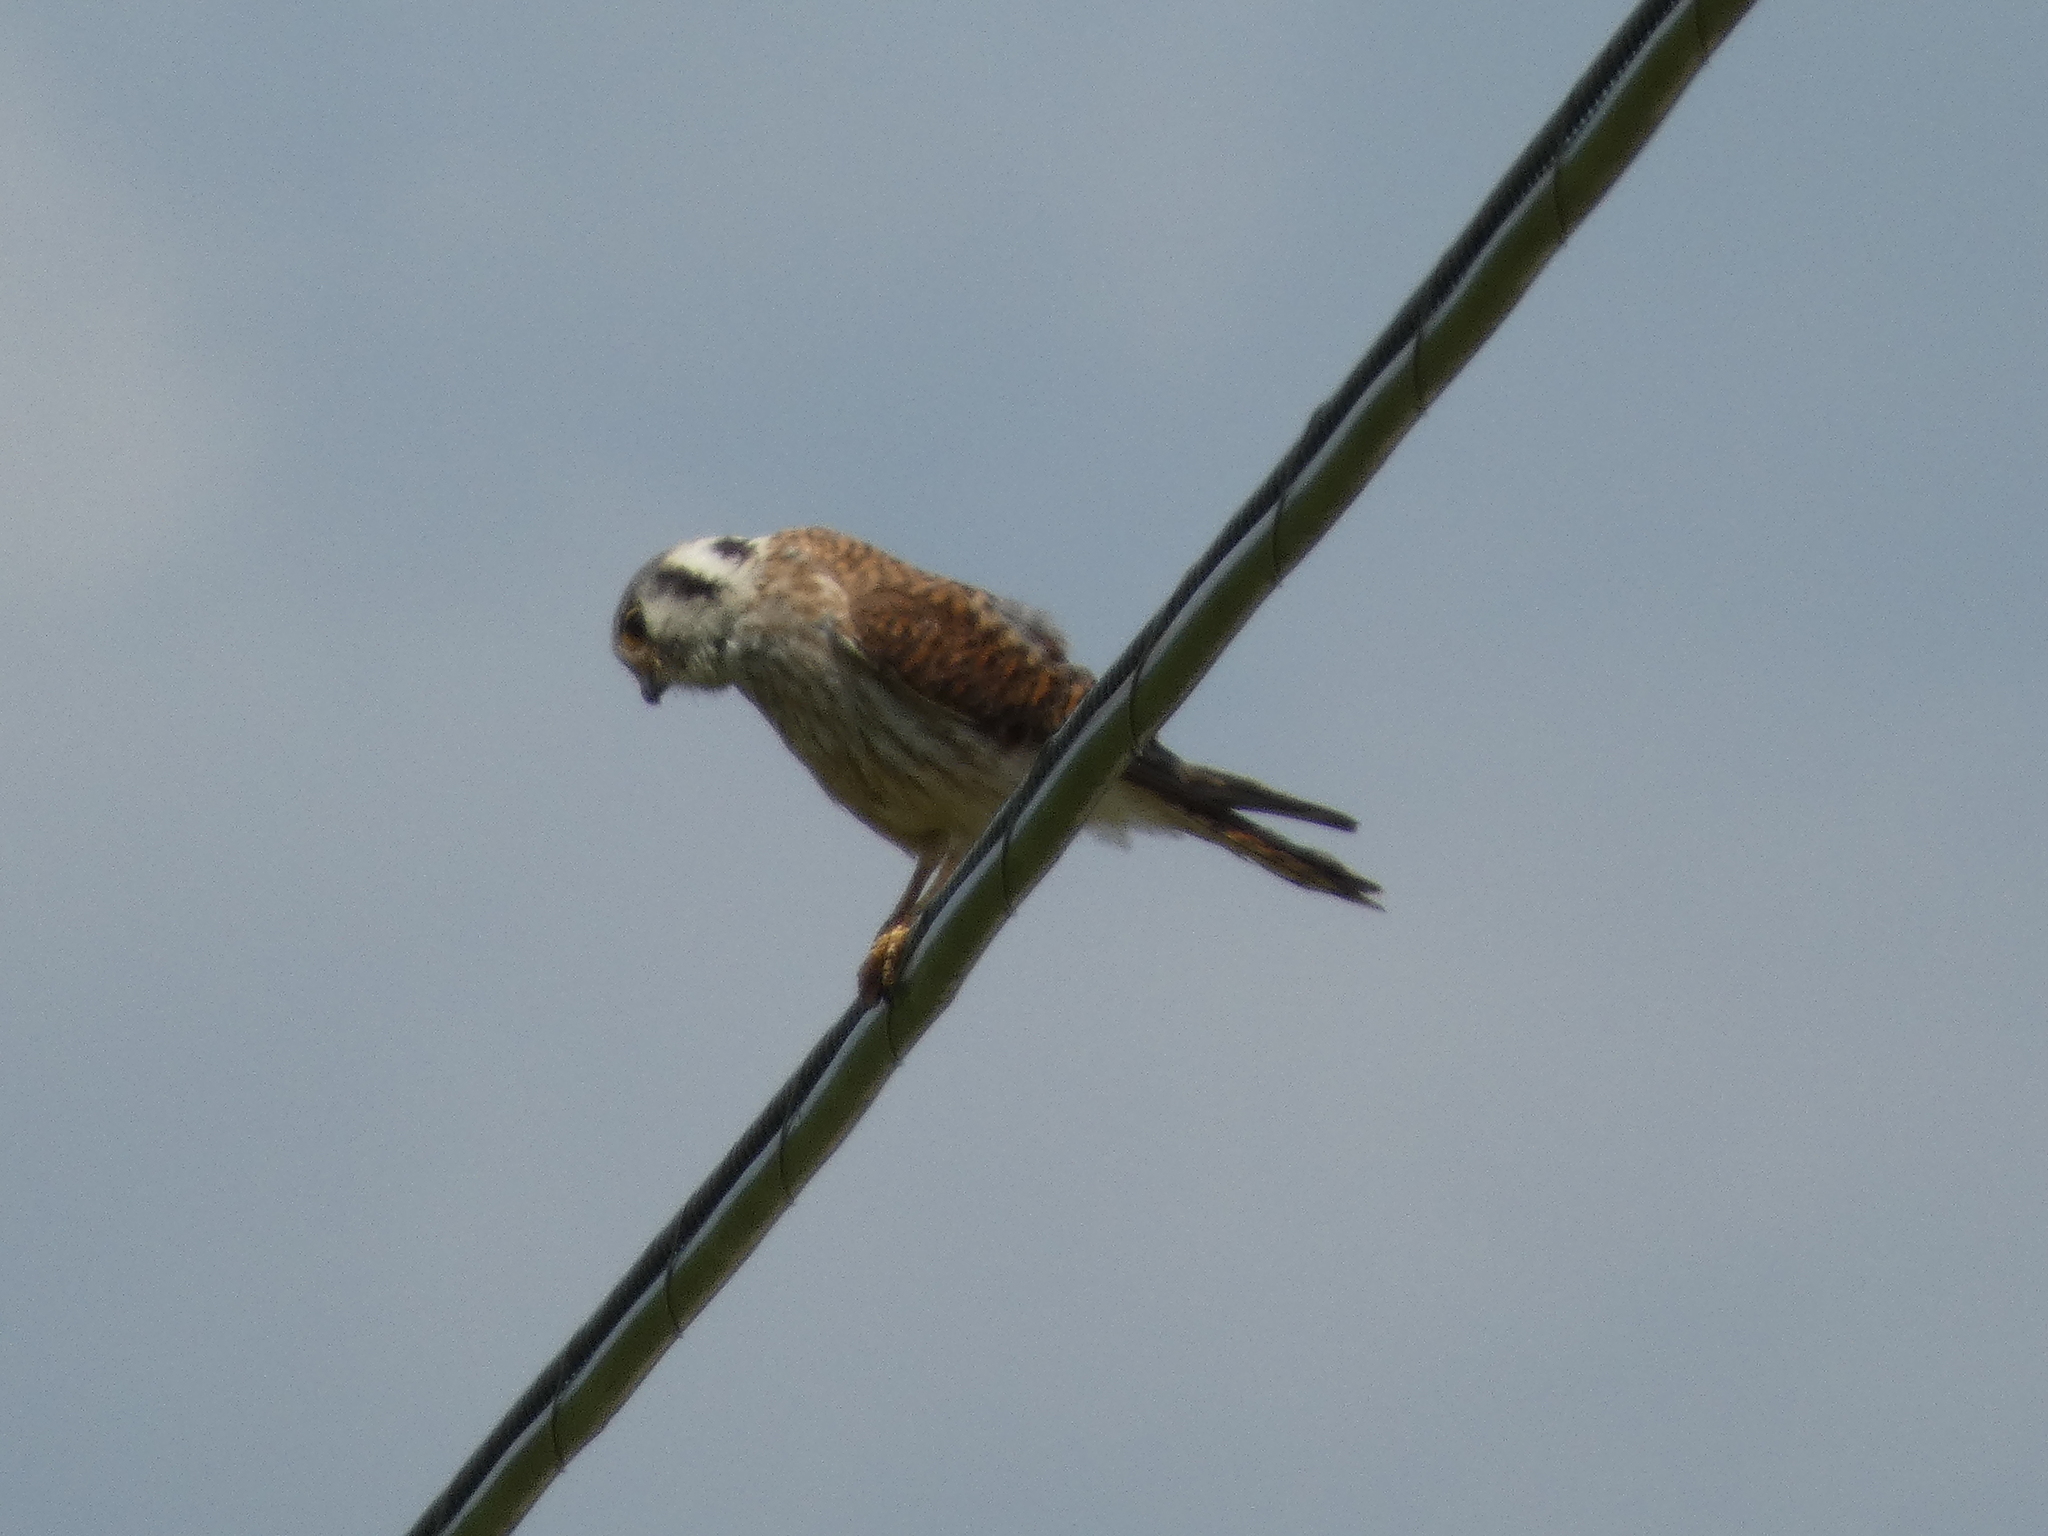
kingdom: Animalia
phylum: Chordata
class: Aves
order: Falconiformes
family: Falconidae
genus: Falco
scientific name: Falco sparverius
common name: American kestrel
